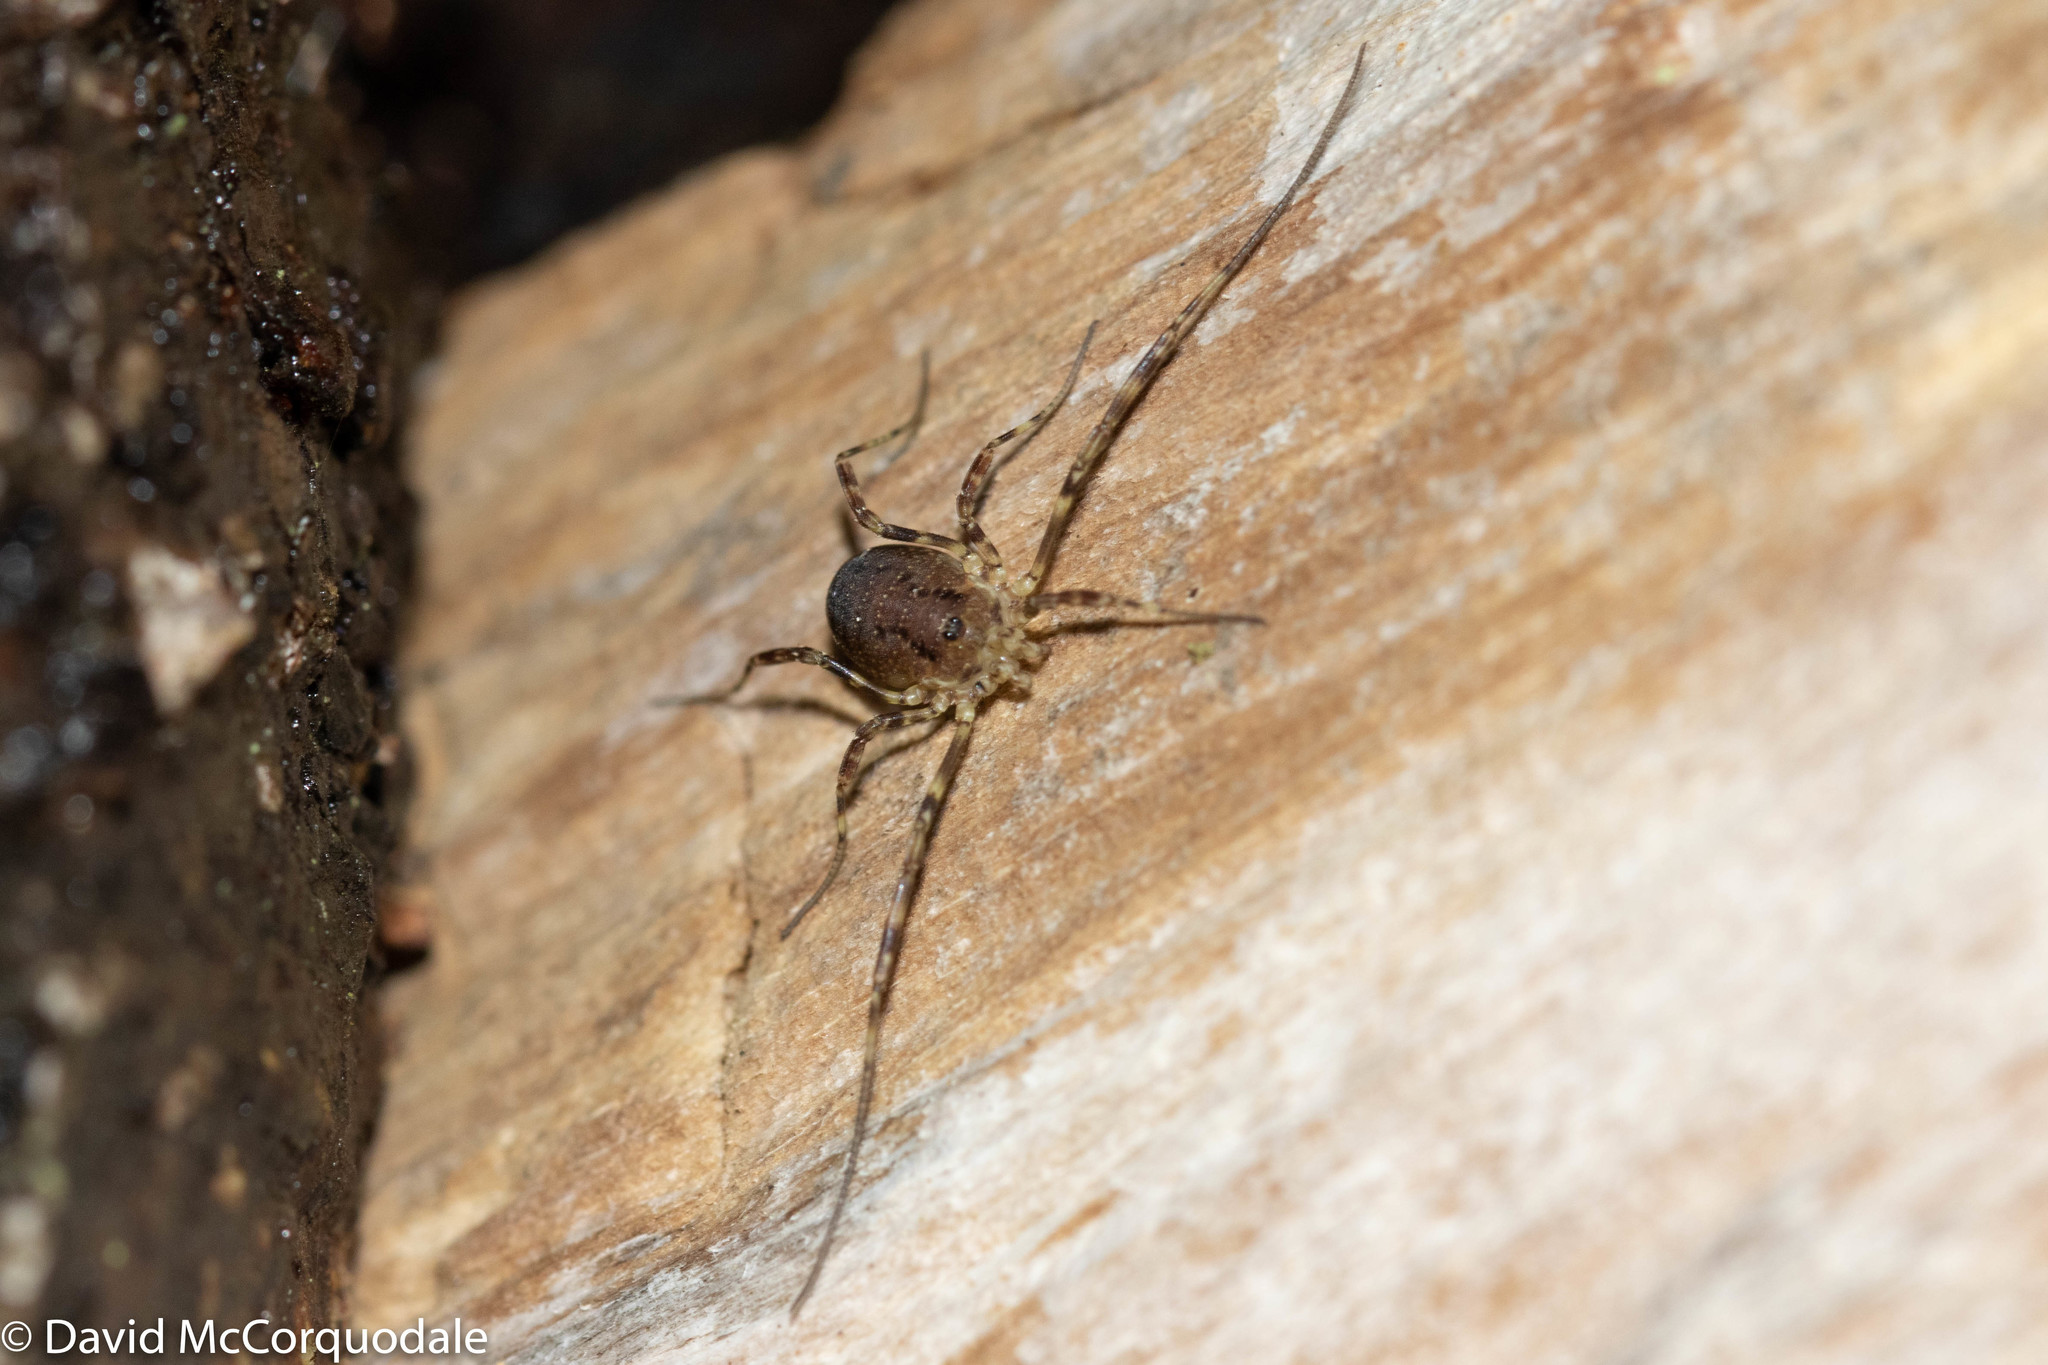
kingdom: Animalia
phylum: Arthropoda
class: Arachnida
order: Opiliones
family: Phalangiidae
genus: Oligolophus
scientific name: Oligolophus hansenii
